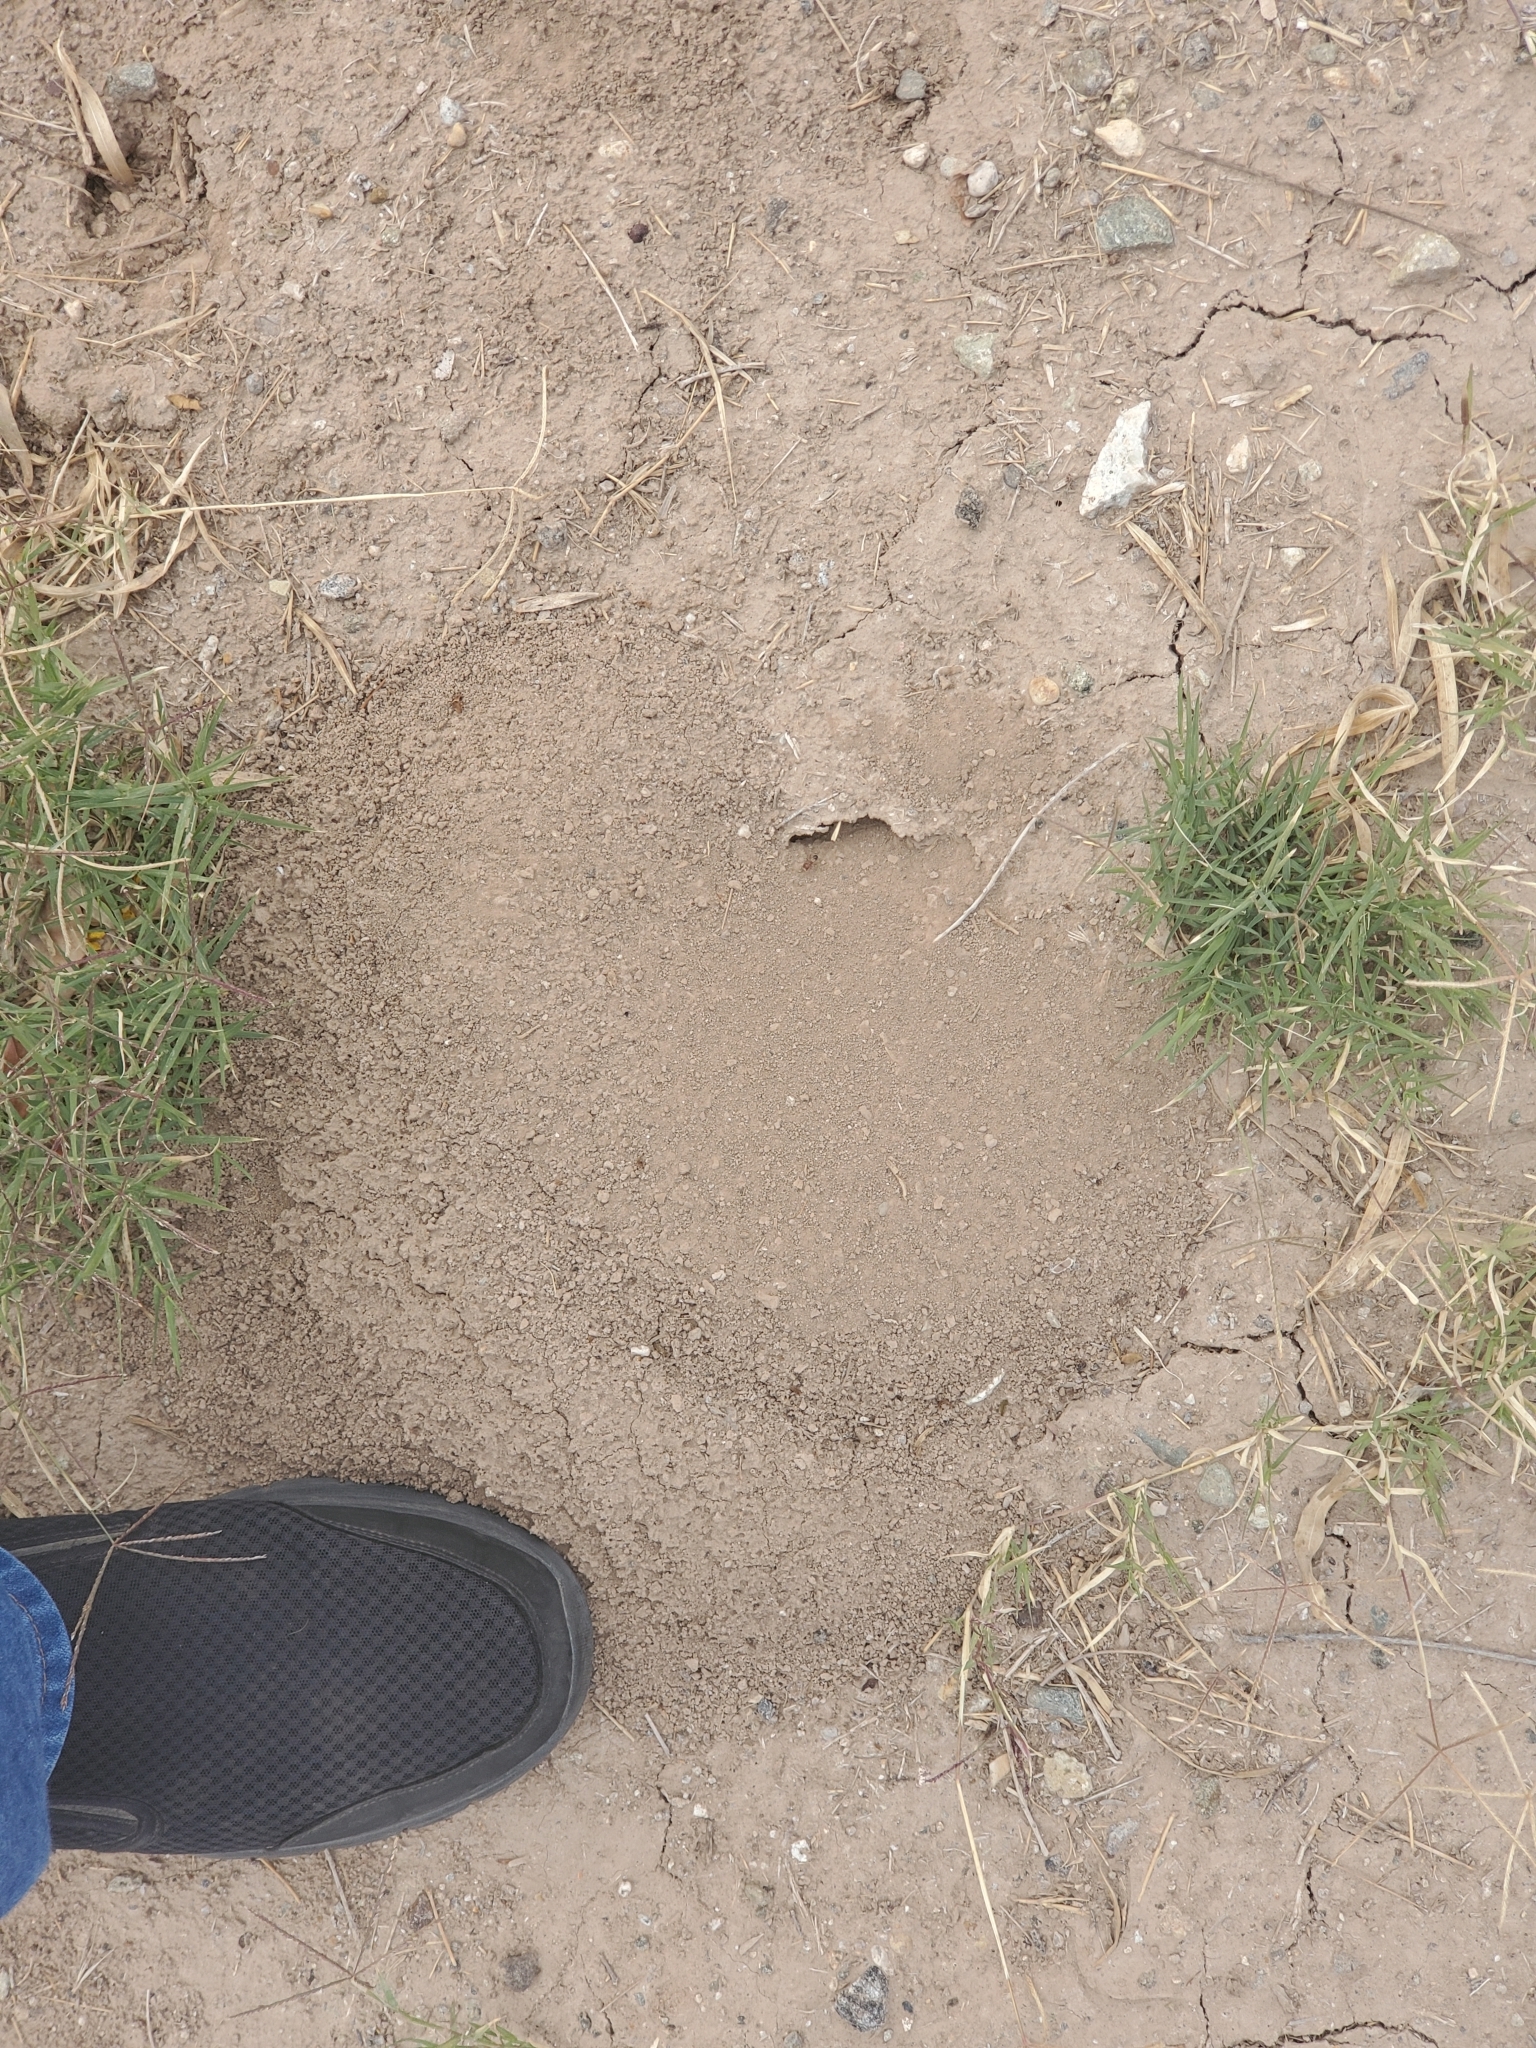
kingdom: Animalia
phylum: Arthropoda
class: Insecta
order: Hymenoptera
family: Formicidae
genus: Pogonomyrmex
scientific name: Pogonomyrmex californicus
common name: California harvester ant
